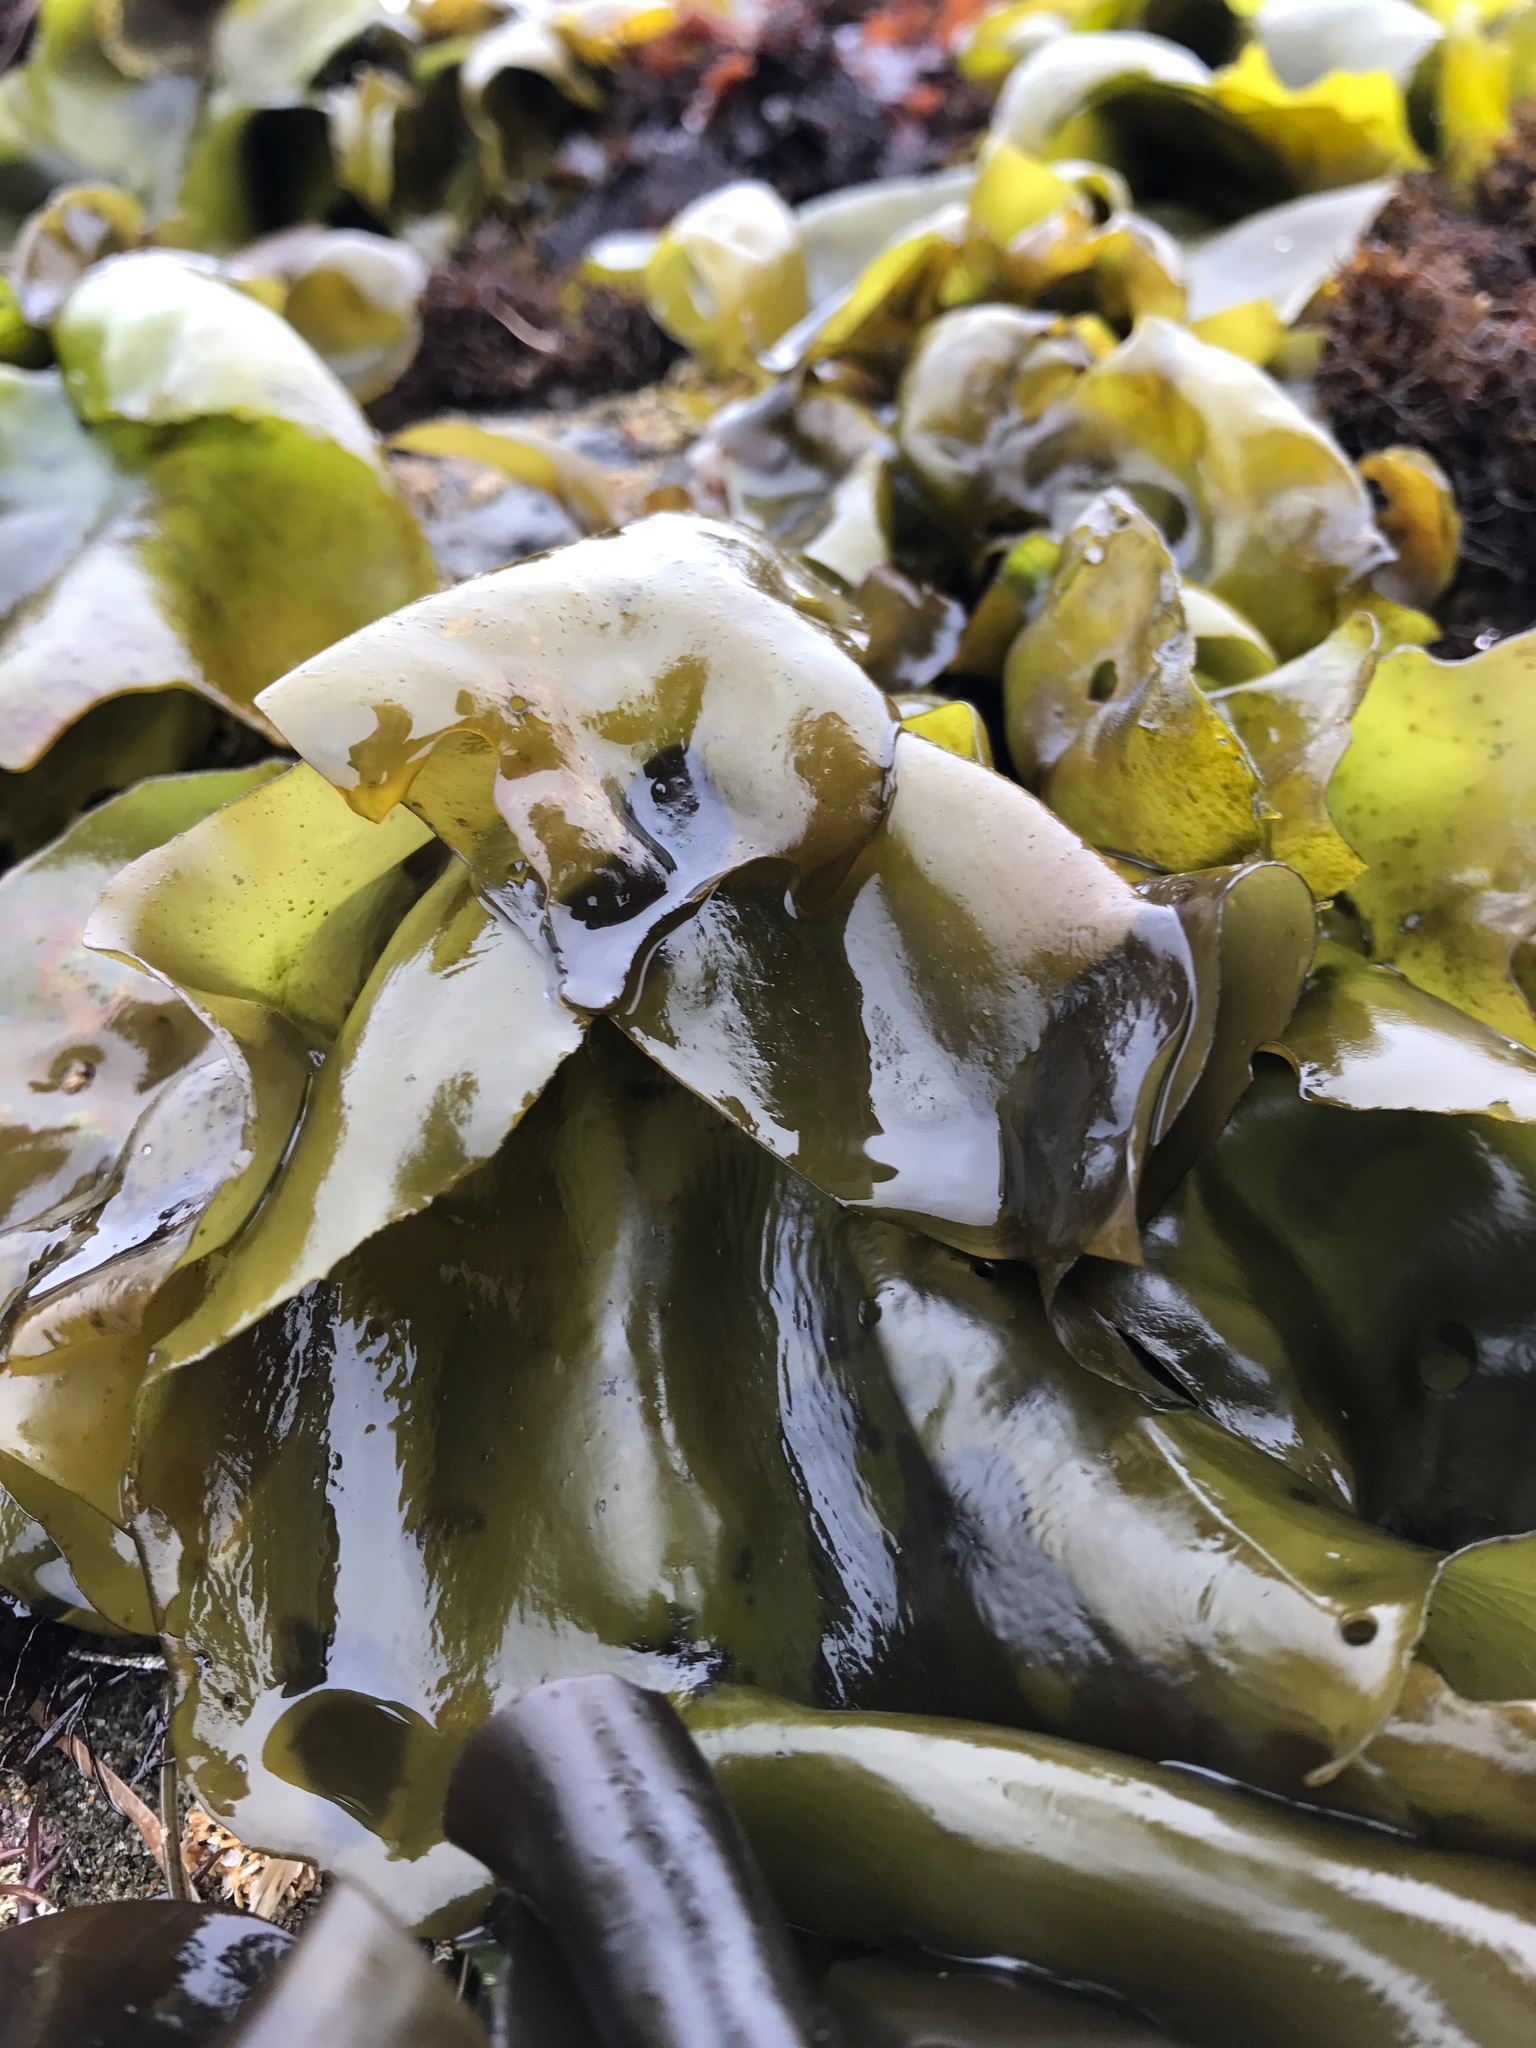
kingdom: Plantae
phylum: Rhodophyta
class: Florideophyceae
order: Gigartinales
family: Gigartinaceae
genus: Mazzaella
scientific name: Mazzaella flaccida
